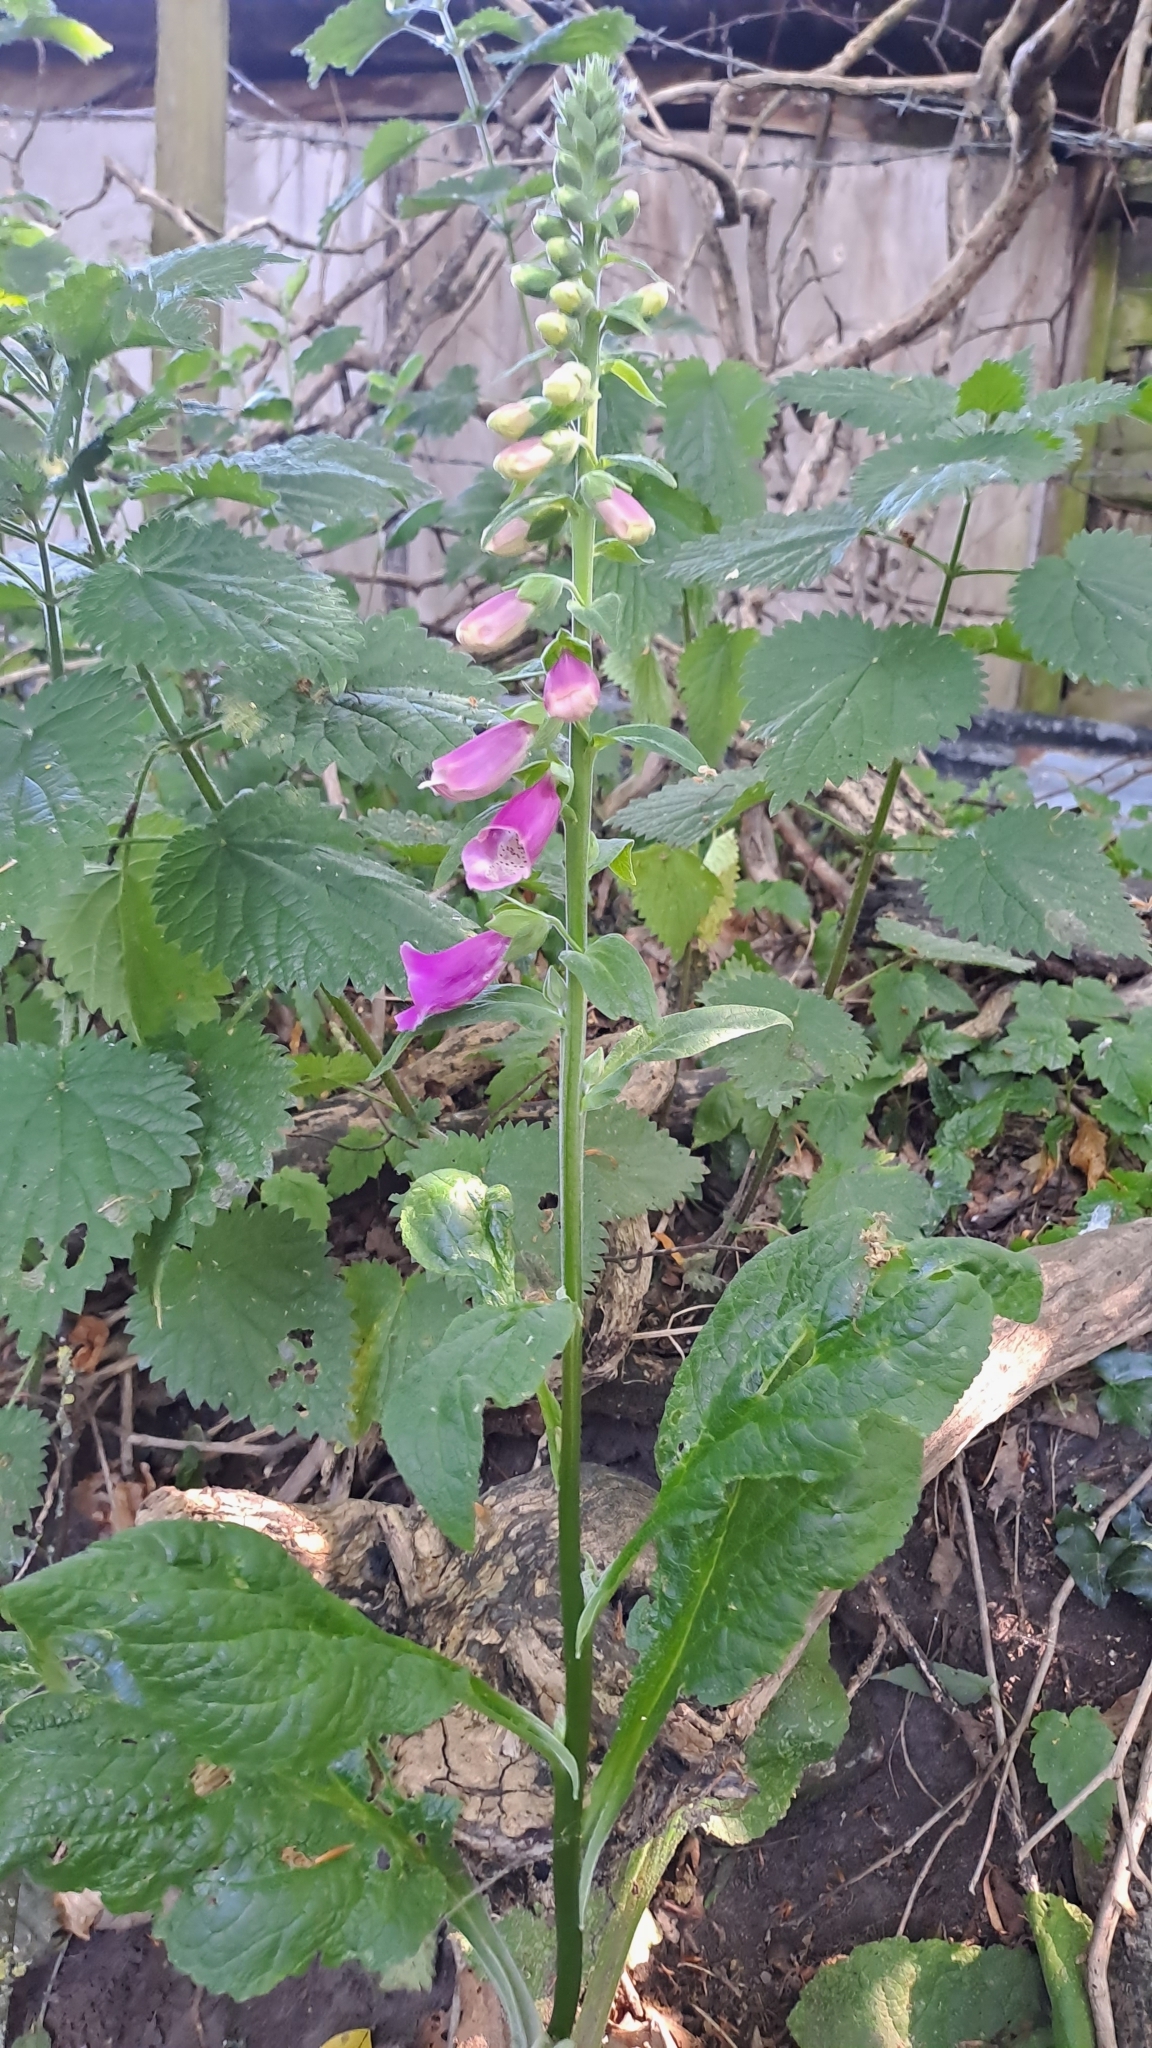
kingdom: Plantae
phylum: Tracheophyta
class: Magnoliopsida
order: Lamiales
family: Plantaginaceae
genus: Digitalis
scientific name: Digitalis purpurea
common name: Foxglove
